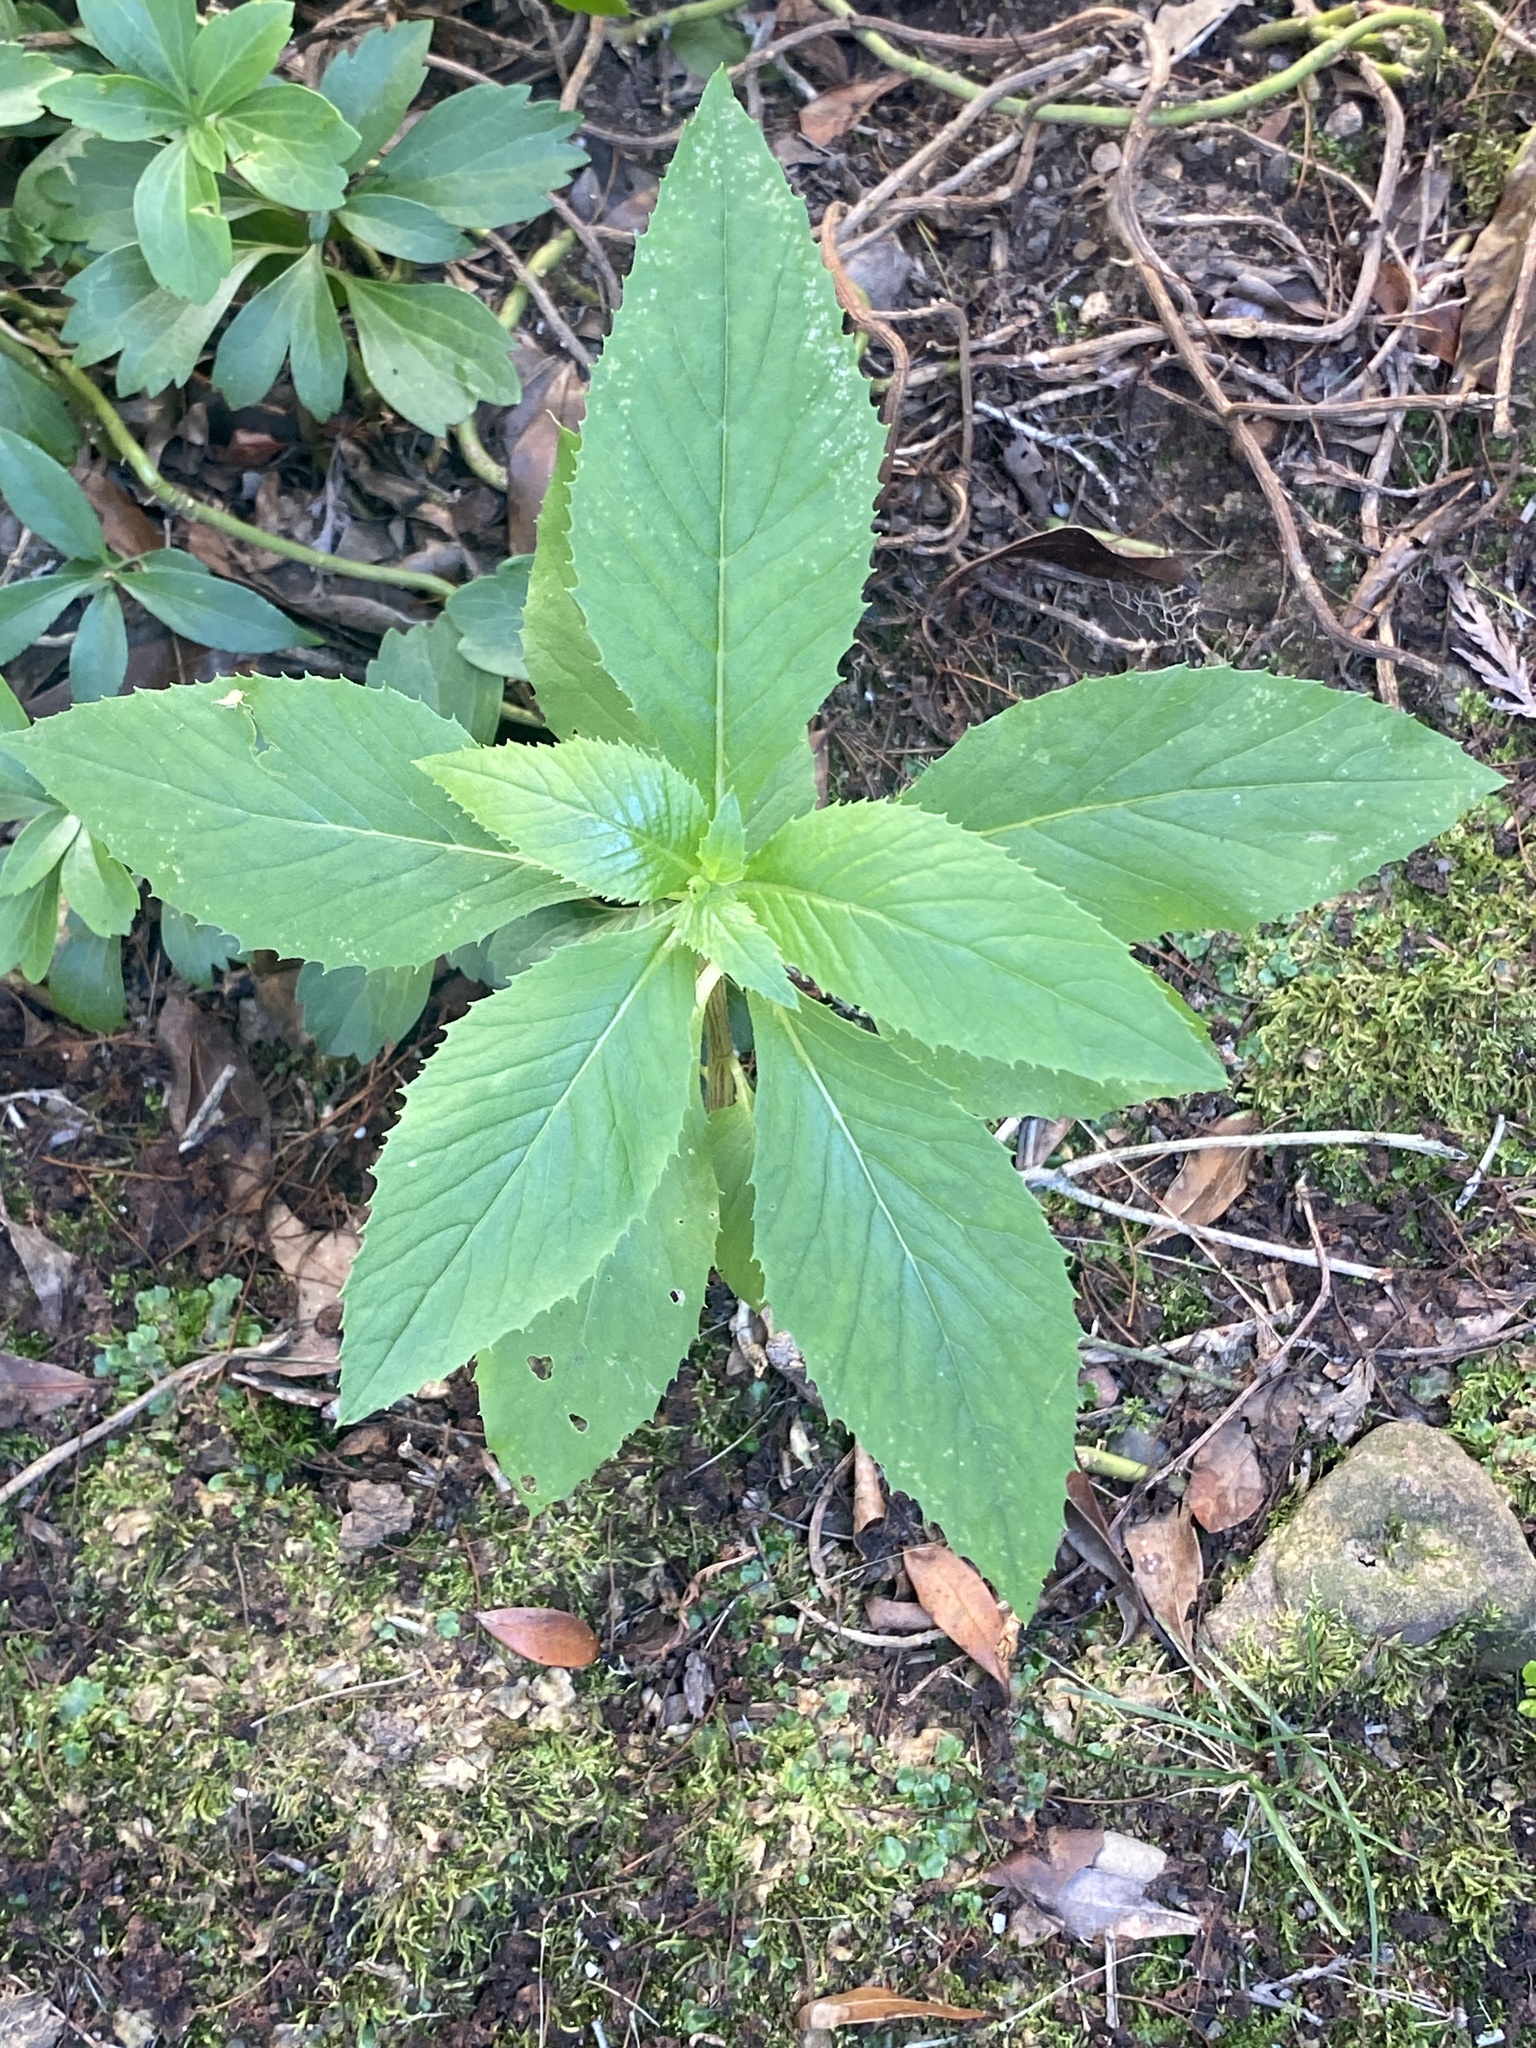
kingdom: Plantae
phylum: Tracheophyta
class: Magnoliopsida
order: Asterales
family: Asteraceae
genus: Erechtites
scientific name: Erechtites hieraciifolius
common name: American burnweed
